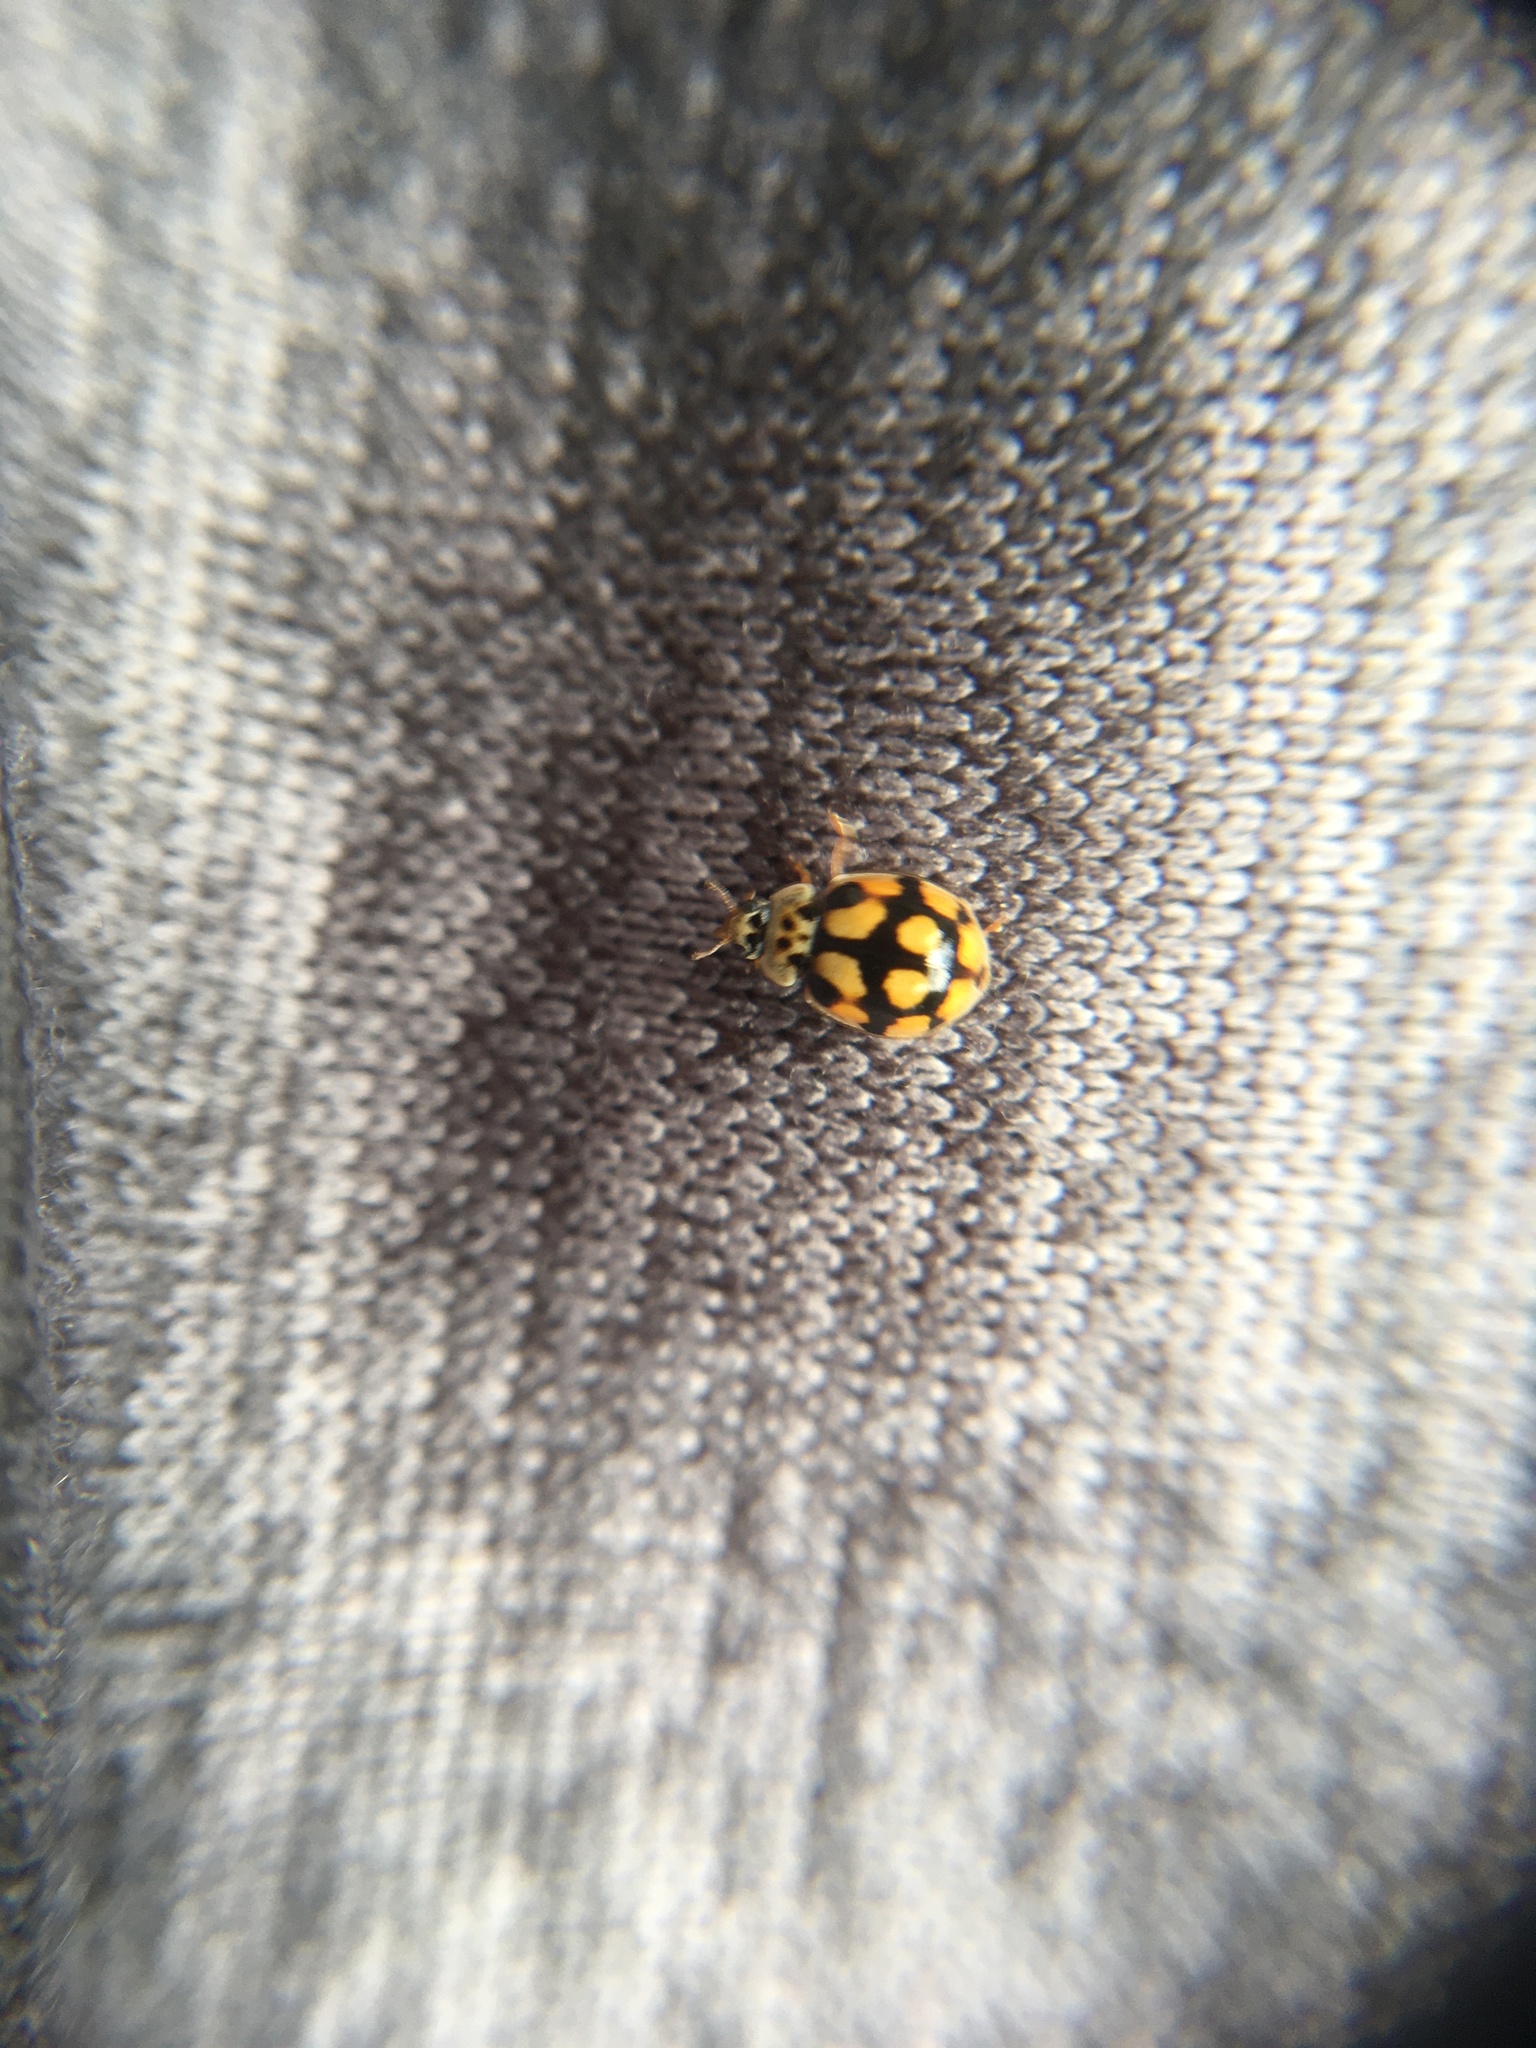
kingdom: Animalia
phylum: Arthropoda
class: Insecta
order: Coleoptera
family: Coccinellidae
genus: Adalia
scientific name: Adalia decempunctata
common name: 10-spot ladybird
